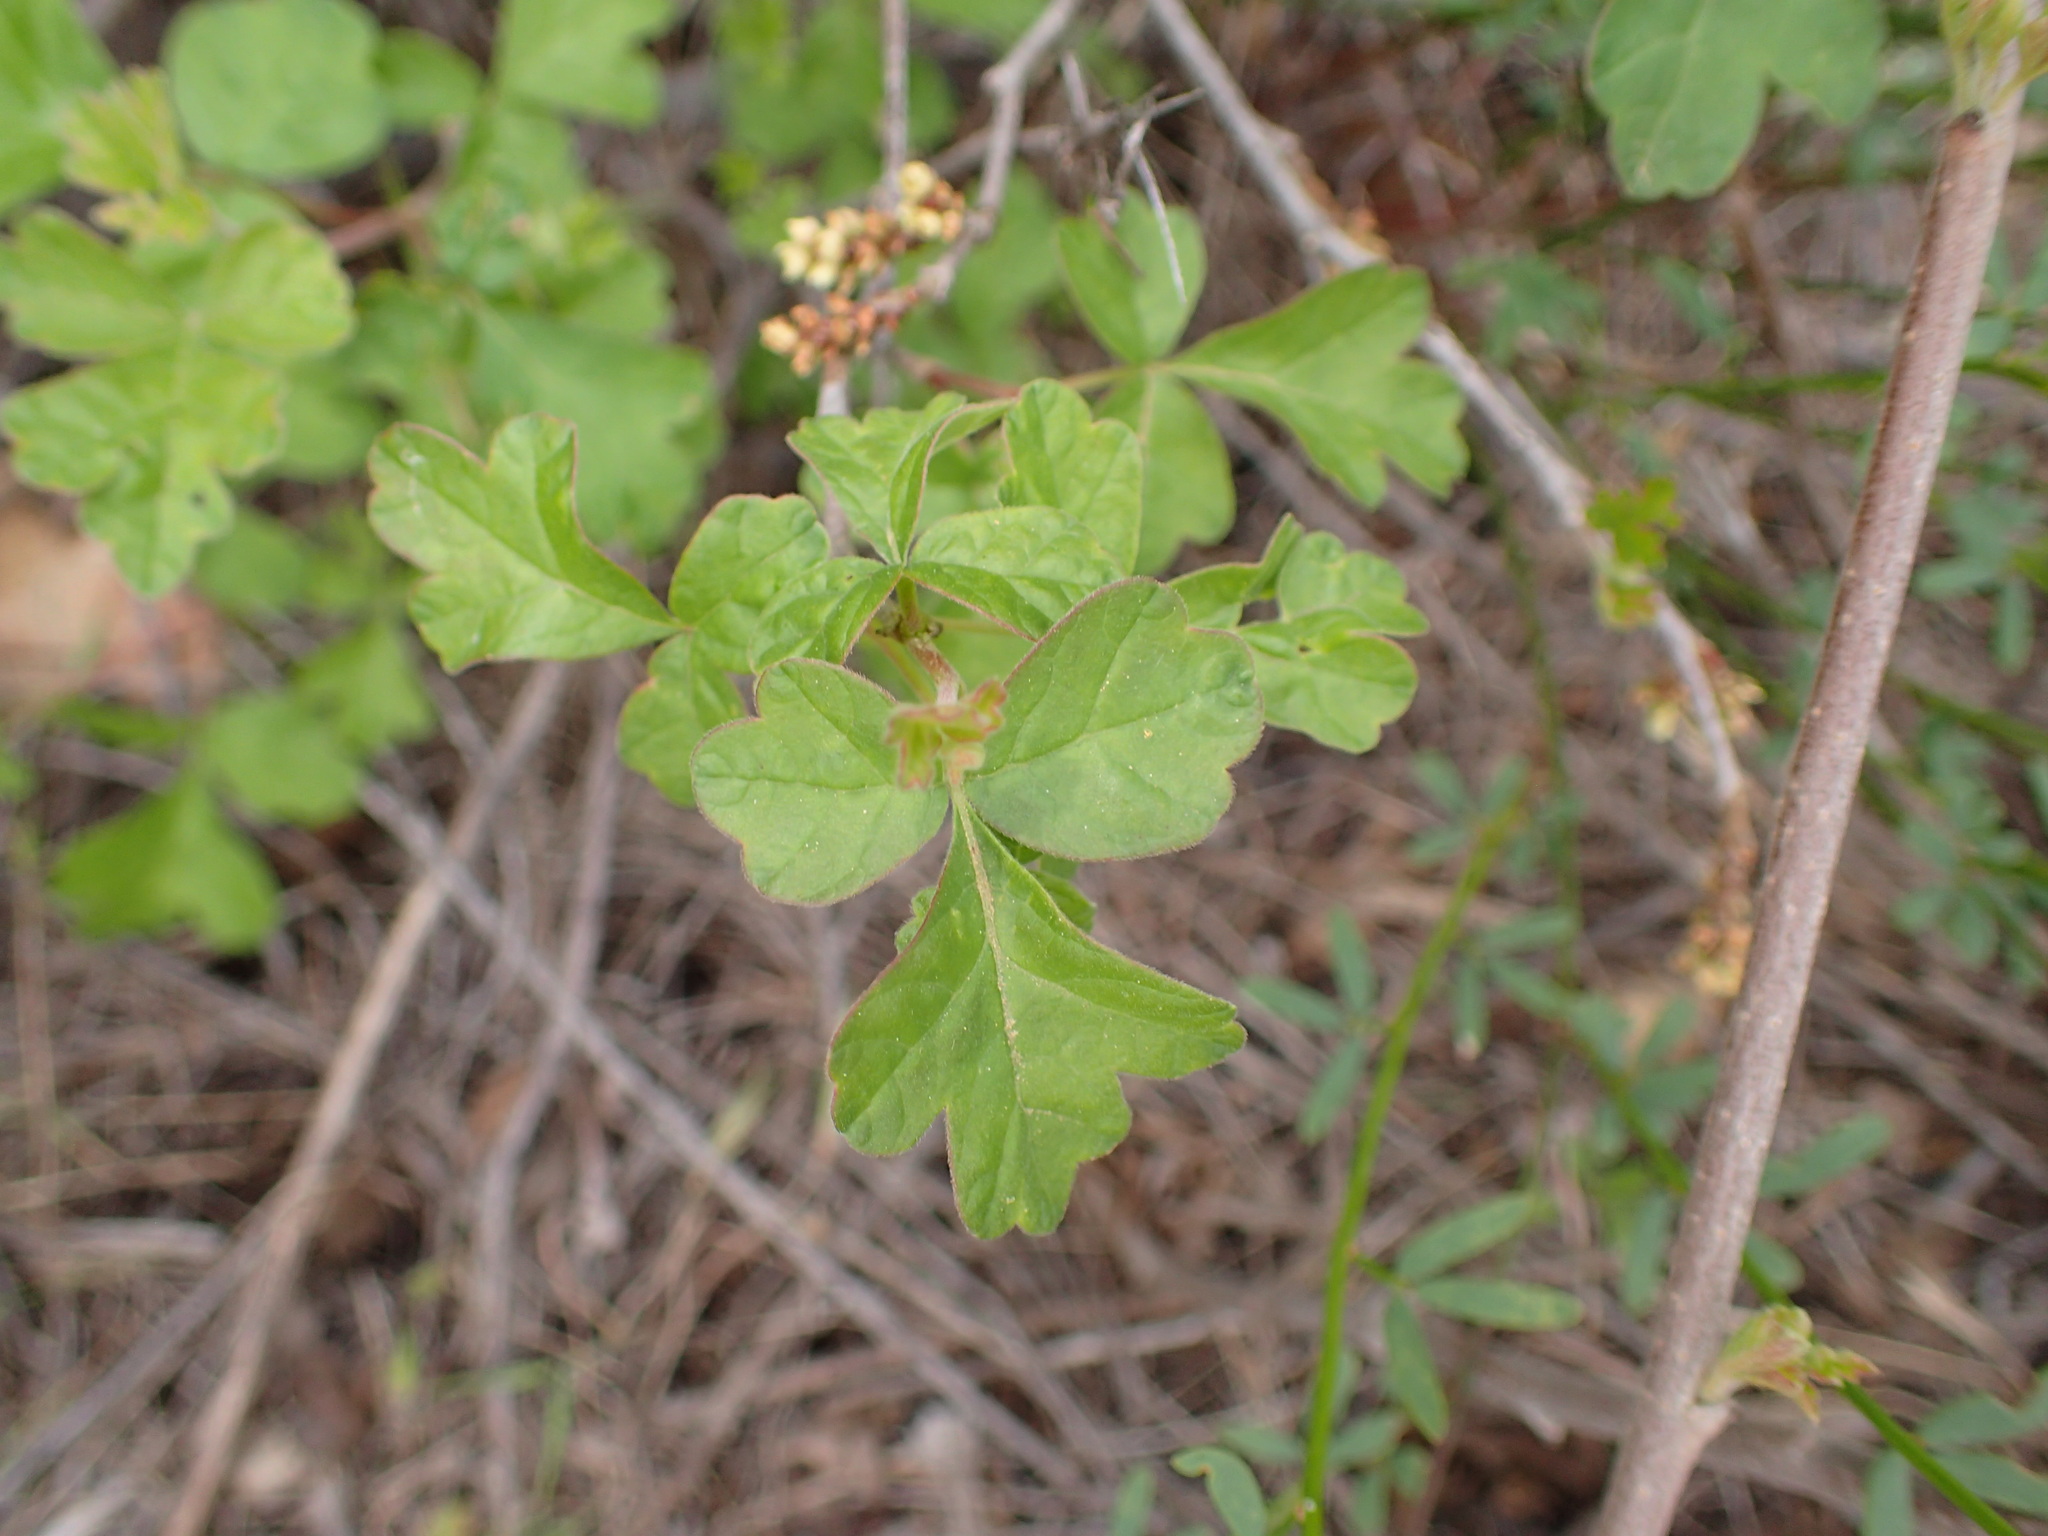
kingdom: Plantae
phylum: Tracheophyta
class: Magnoliopsida
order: Sapindales
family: Anacardiaceae
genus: Rhus
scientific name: Rhus aromatica
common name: Aromatic sumac
